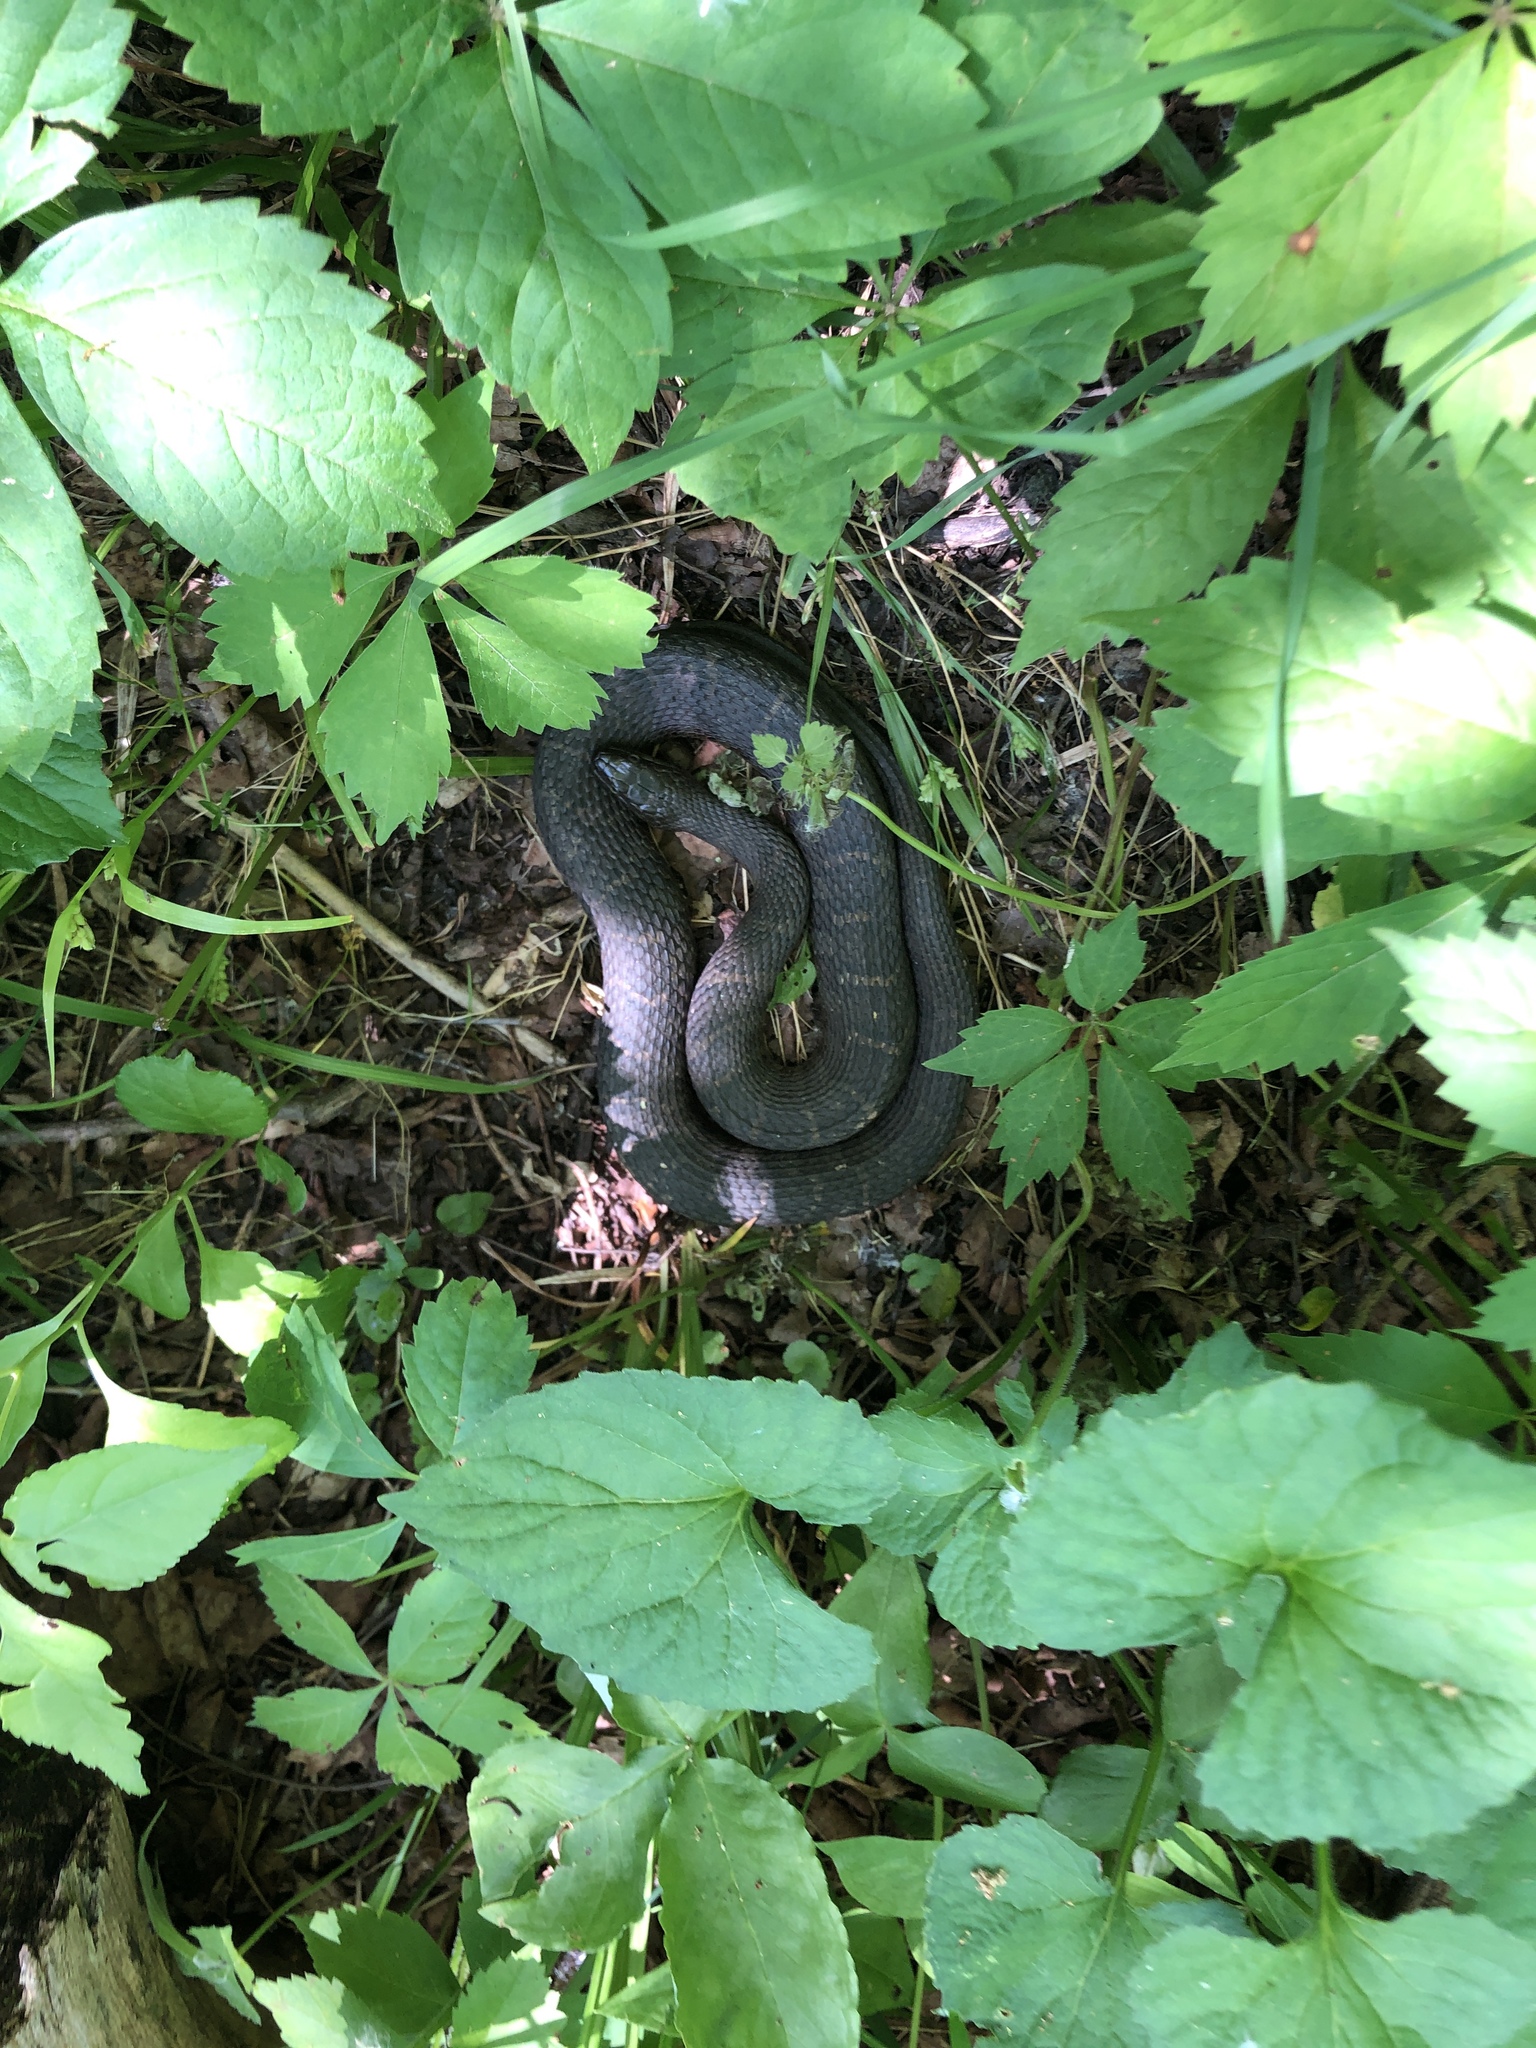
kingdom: Animalia
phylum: Chordata
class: Squamata
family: Colubridae
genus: Nerodia
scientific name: Nerodia sipedon
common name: Northern water snake
